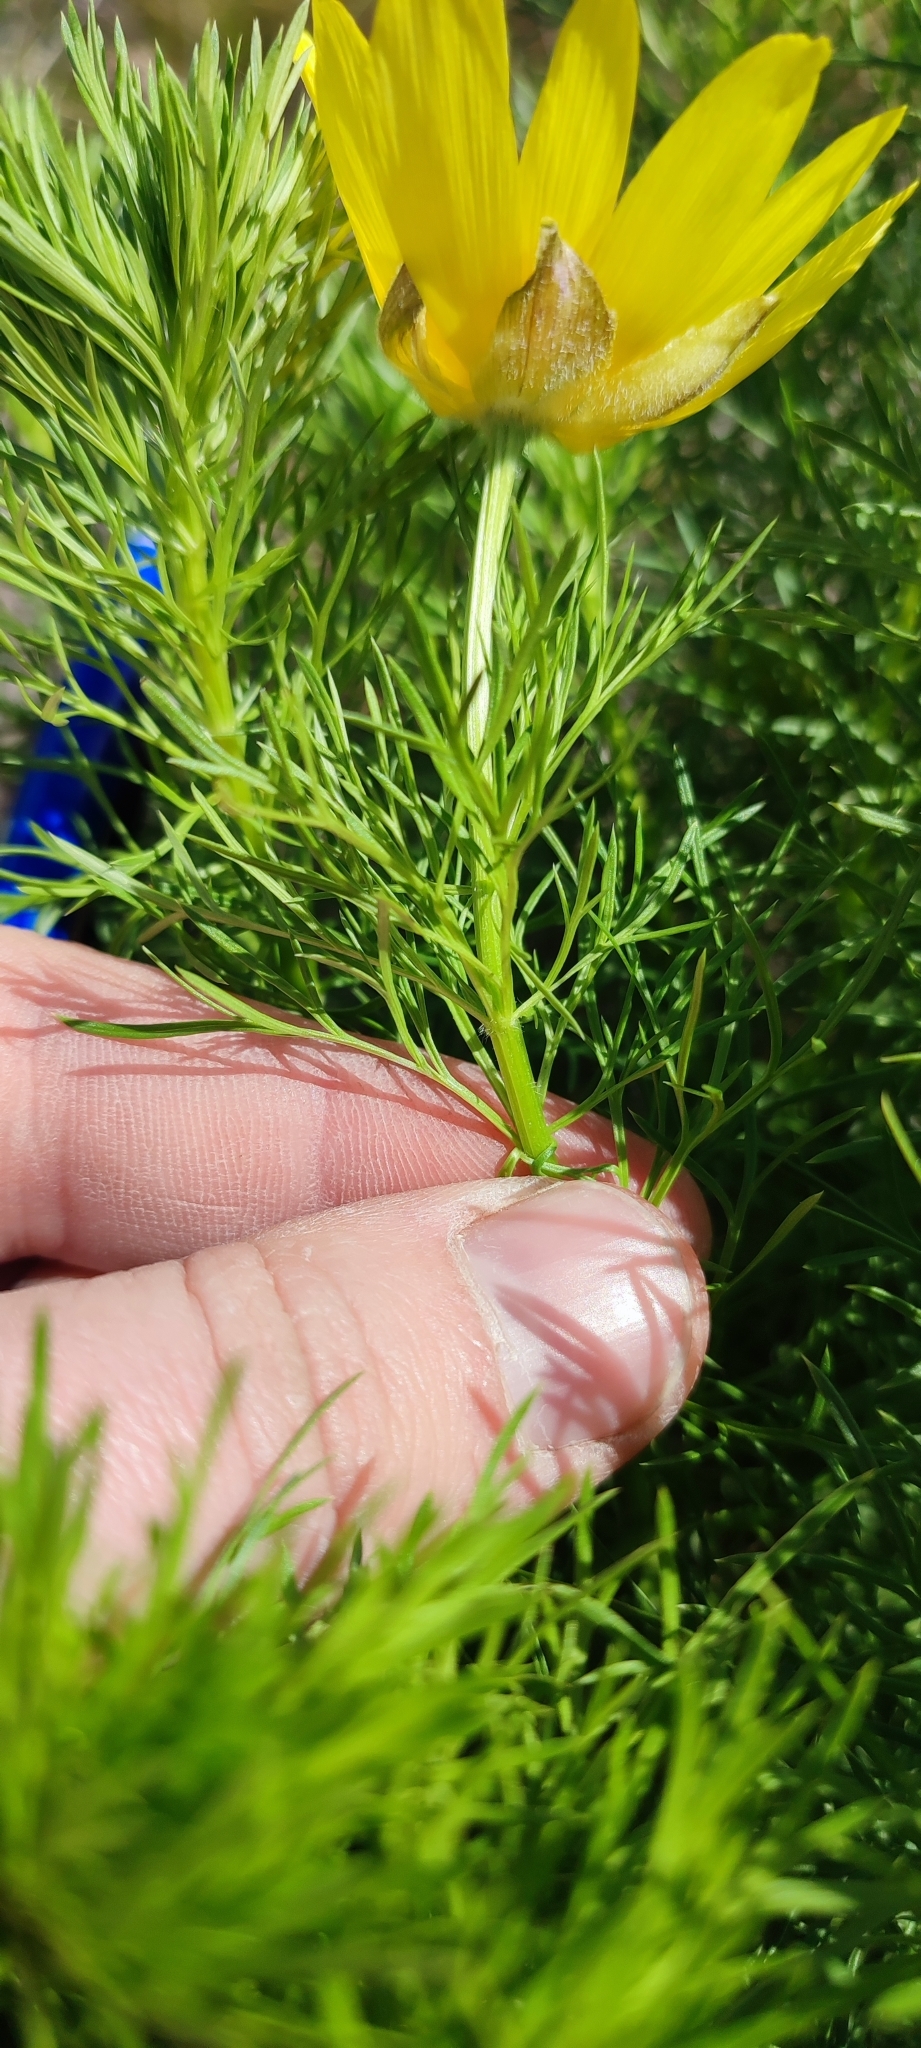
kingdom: Plantae
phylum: Tracheophyta
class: Magnoliopsida
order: Ranunculales
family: Ranunculaceae
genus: Adonis
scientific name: Adonis vernalis
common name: Yellow pheasants-eye
